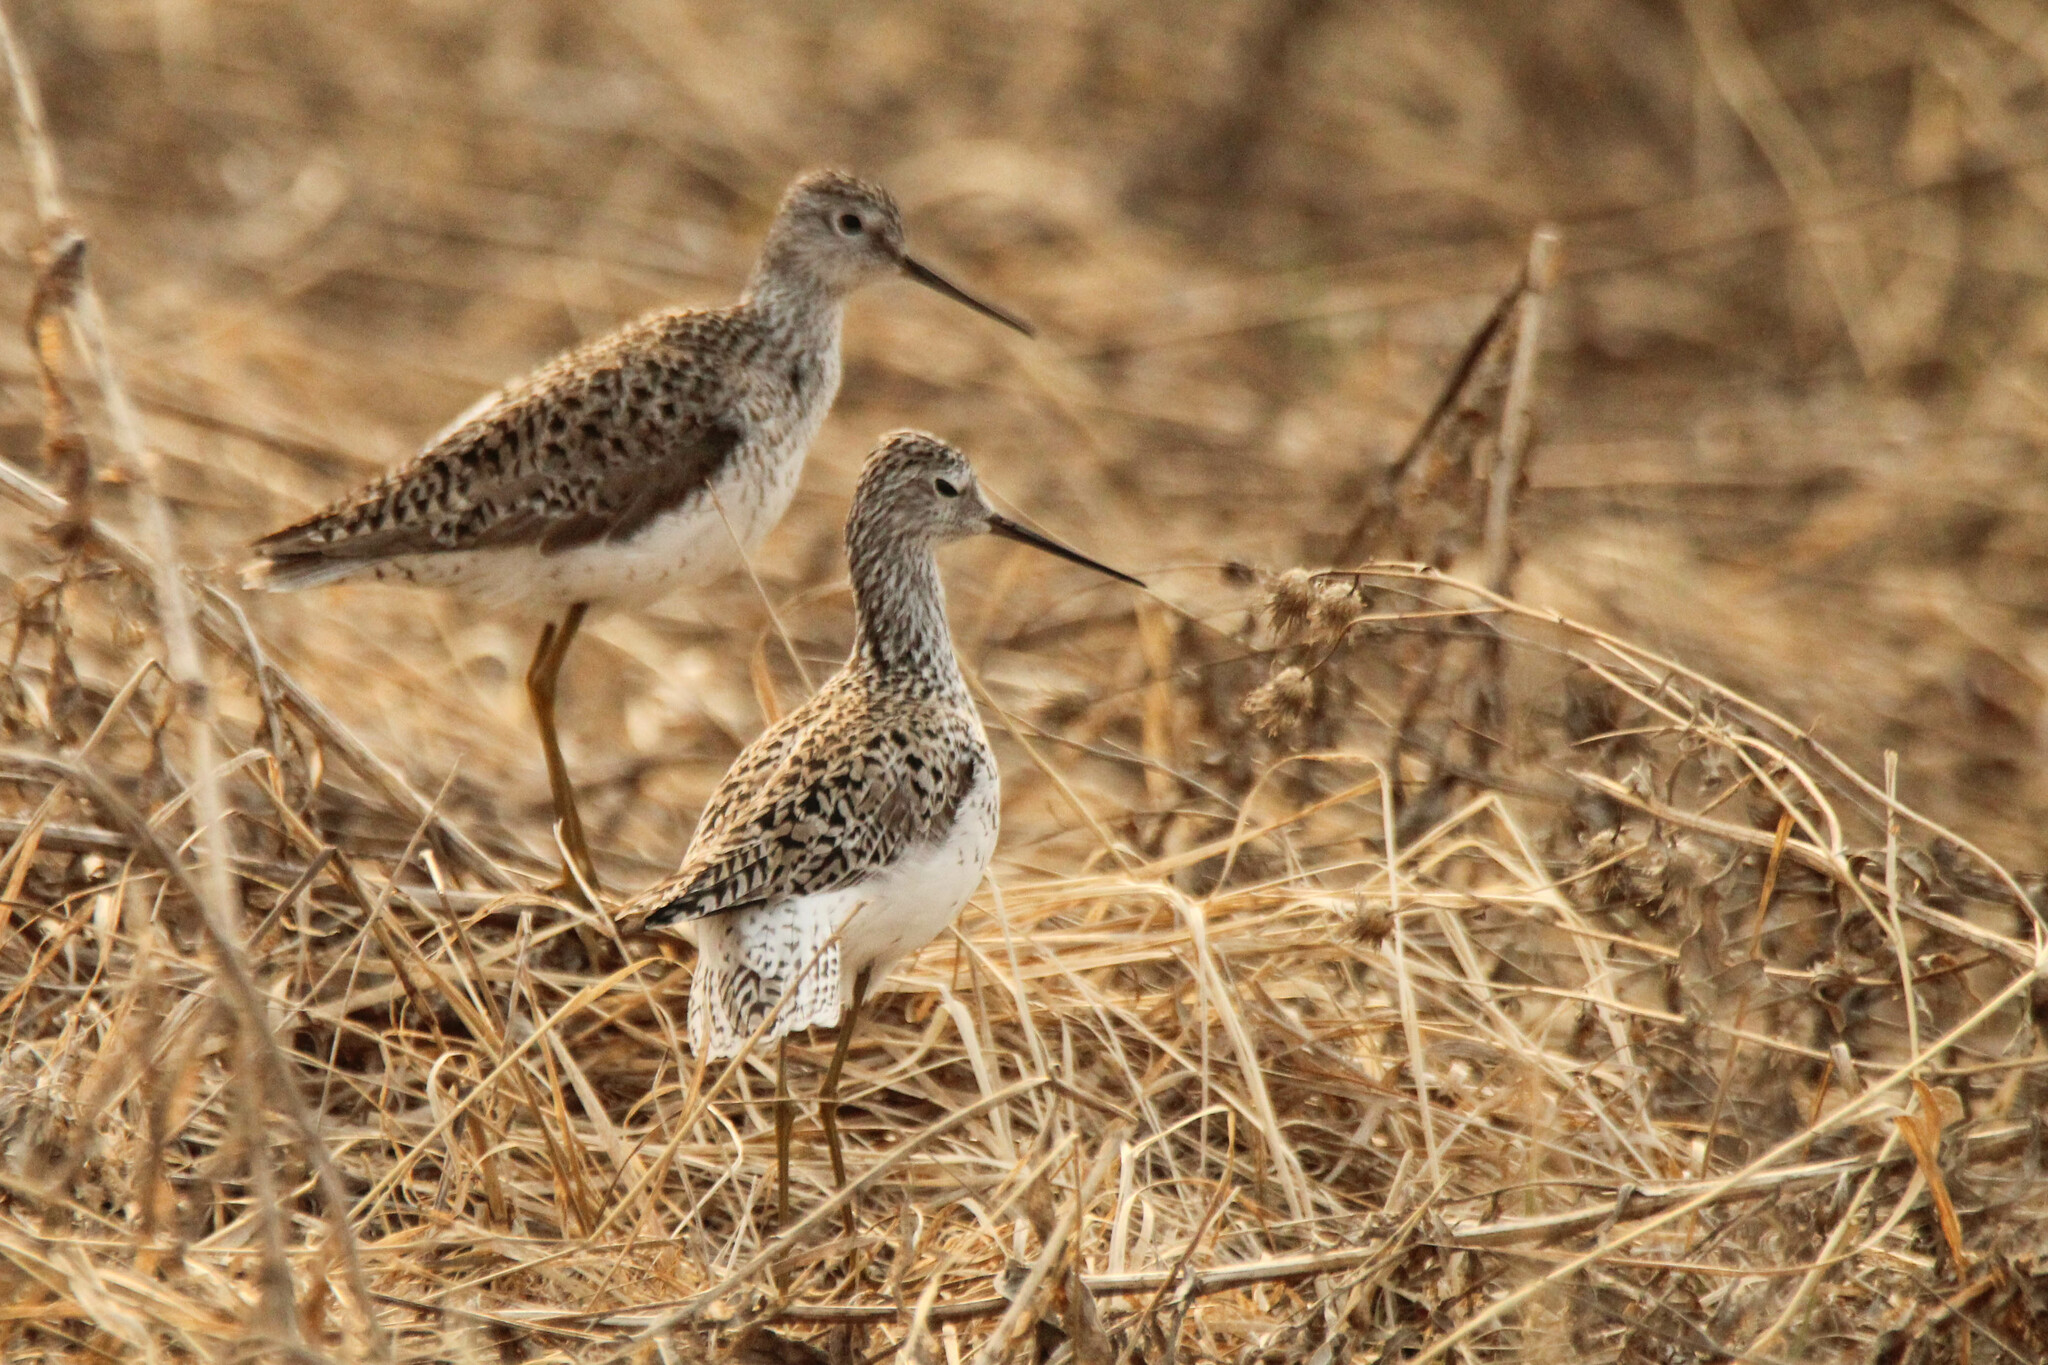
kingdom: Animalia
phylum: Chordata
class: Aves
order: Charadriiformes
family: Scolopacidae
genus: Tringa
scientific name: Tringa stagnatilis
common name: Marsh sandpiper
